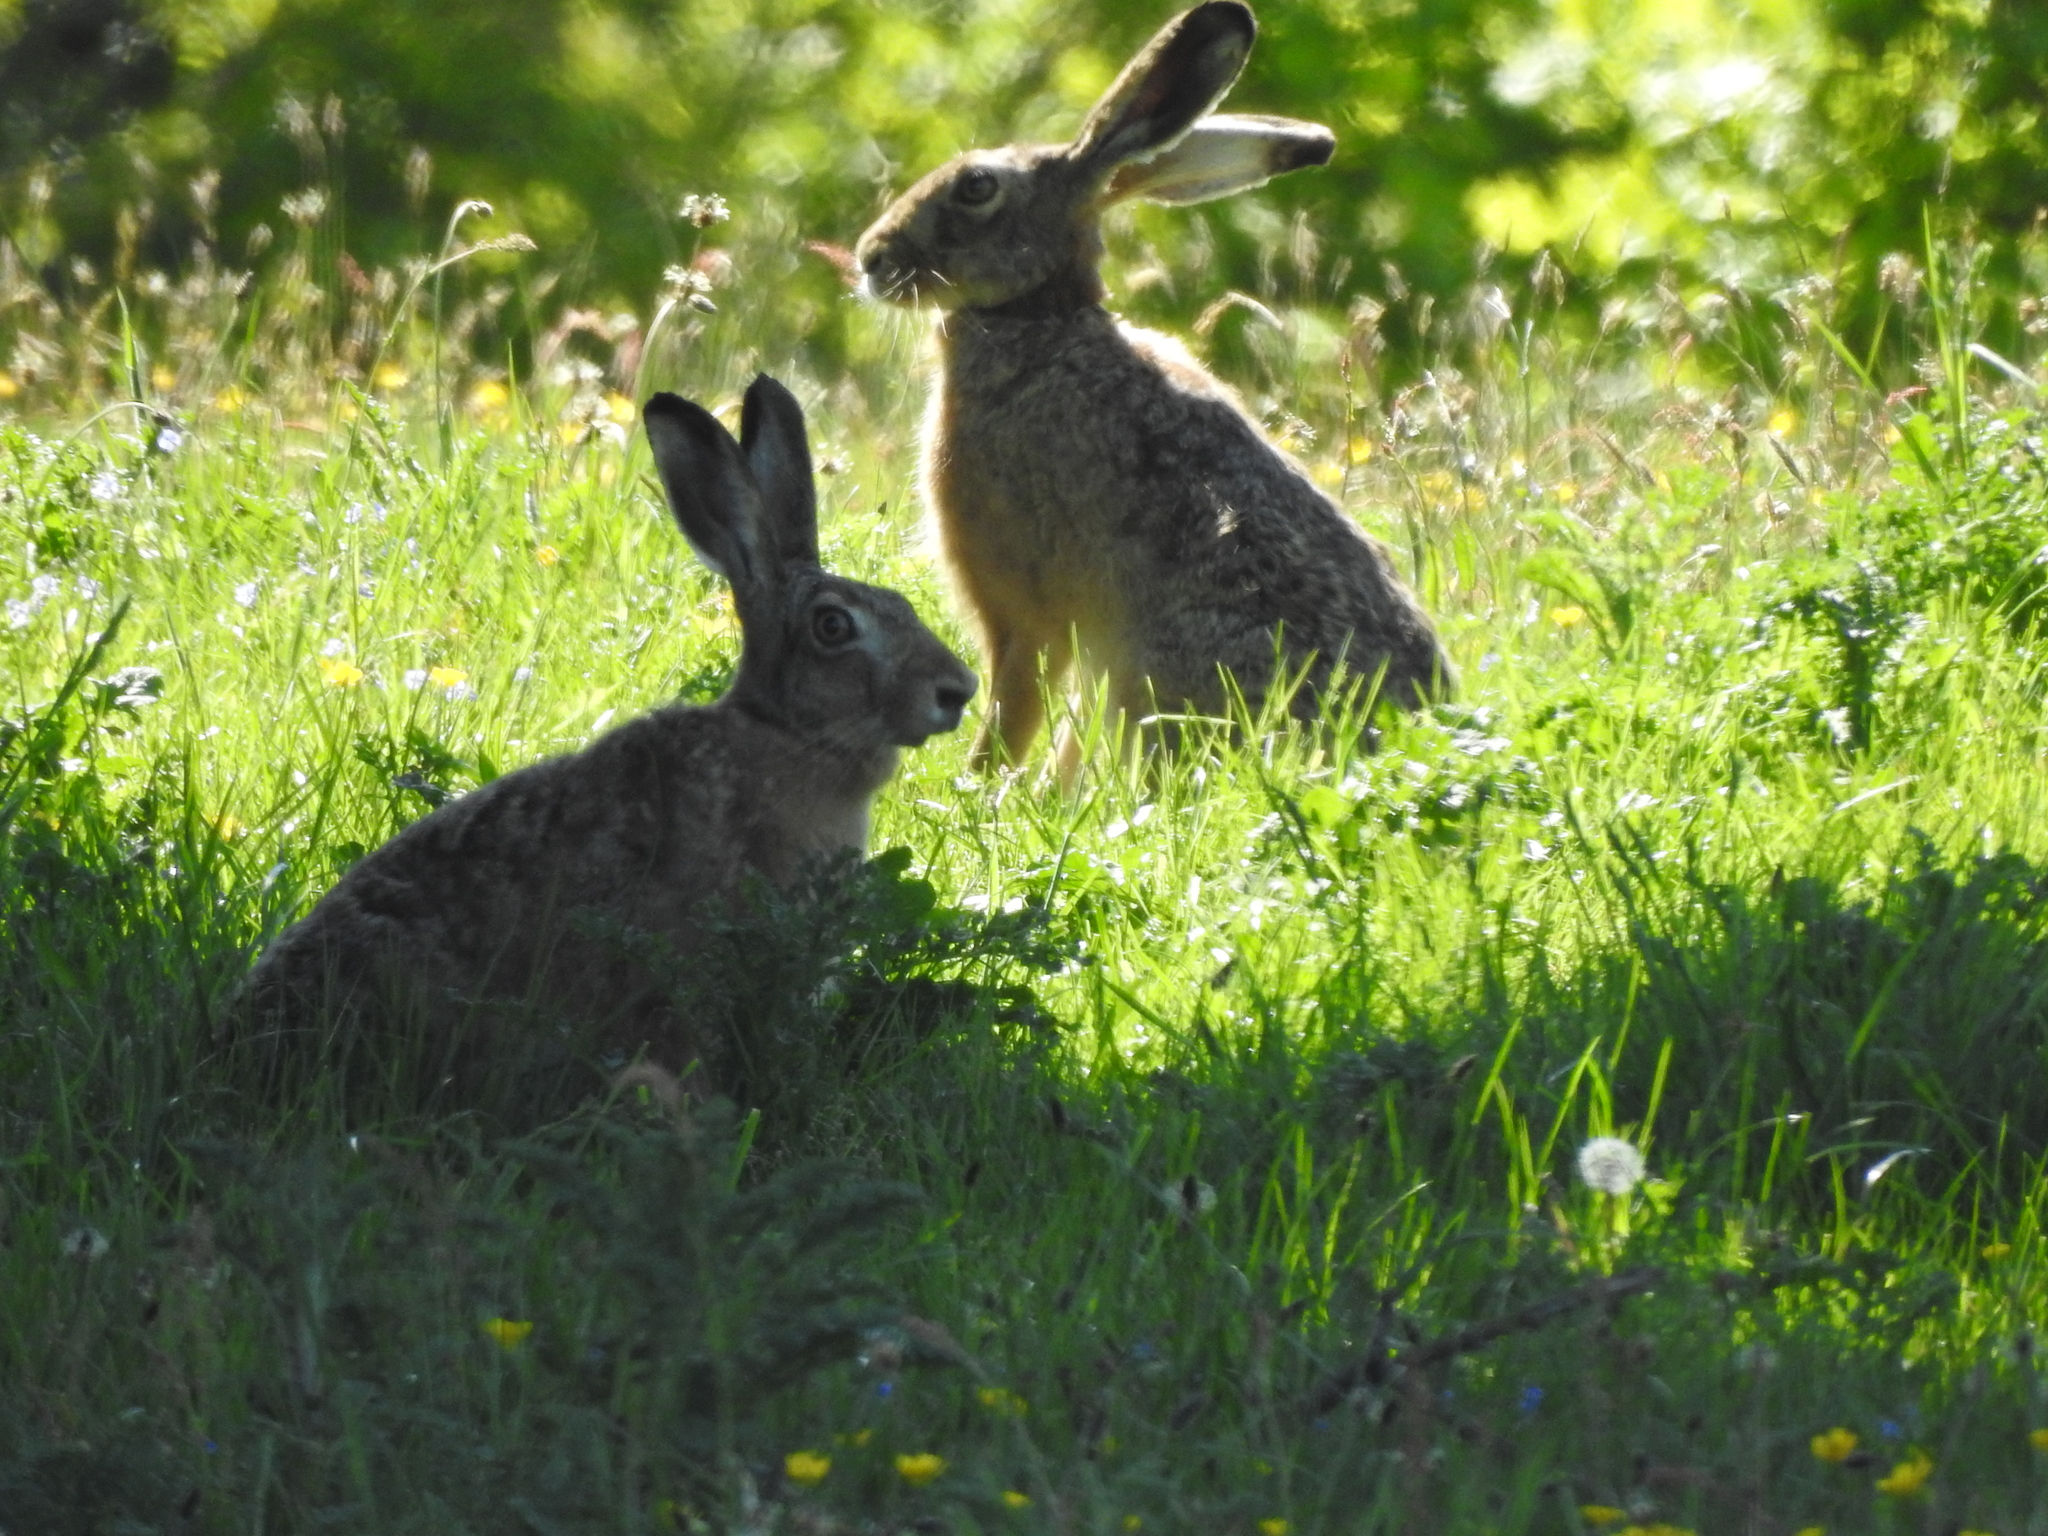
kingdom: Animalia
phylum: Chordata
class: Mammalia
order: Lagomorpha
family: Leporidae
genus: Lepus
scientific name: Lepus europaeus
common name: European hare
